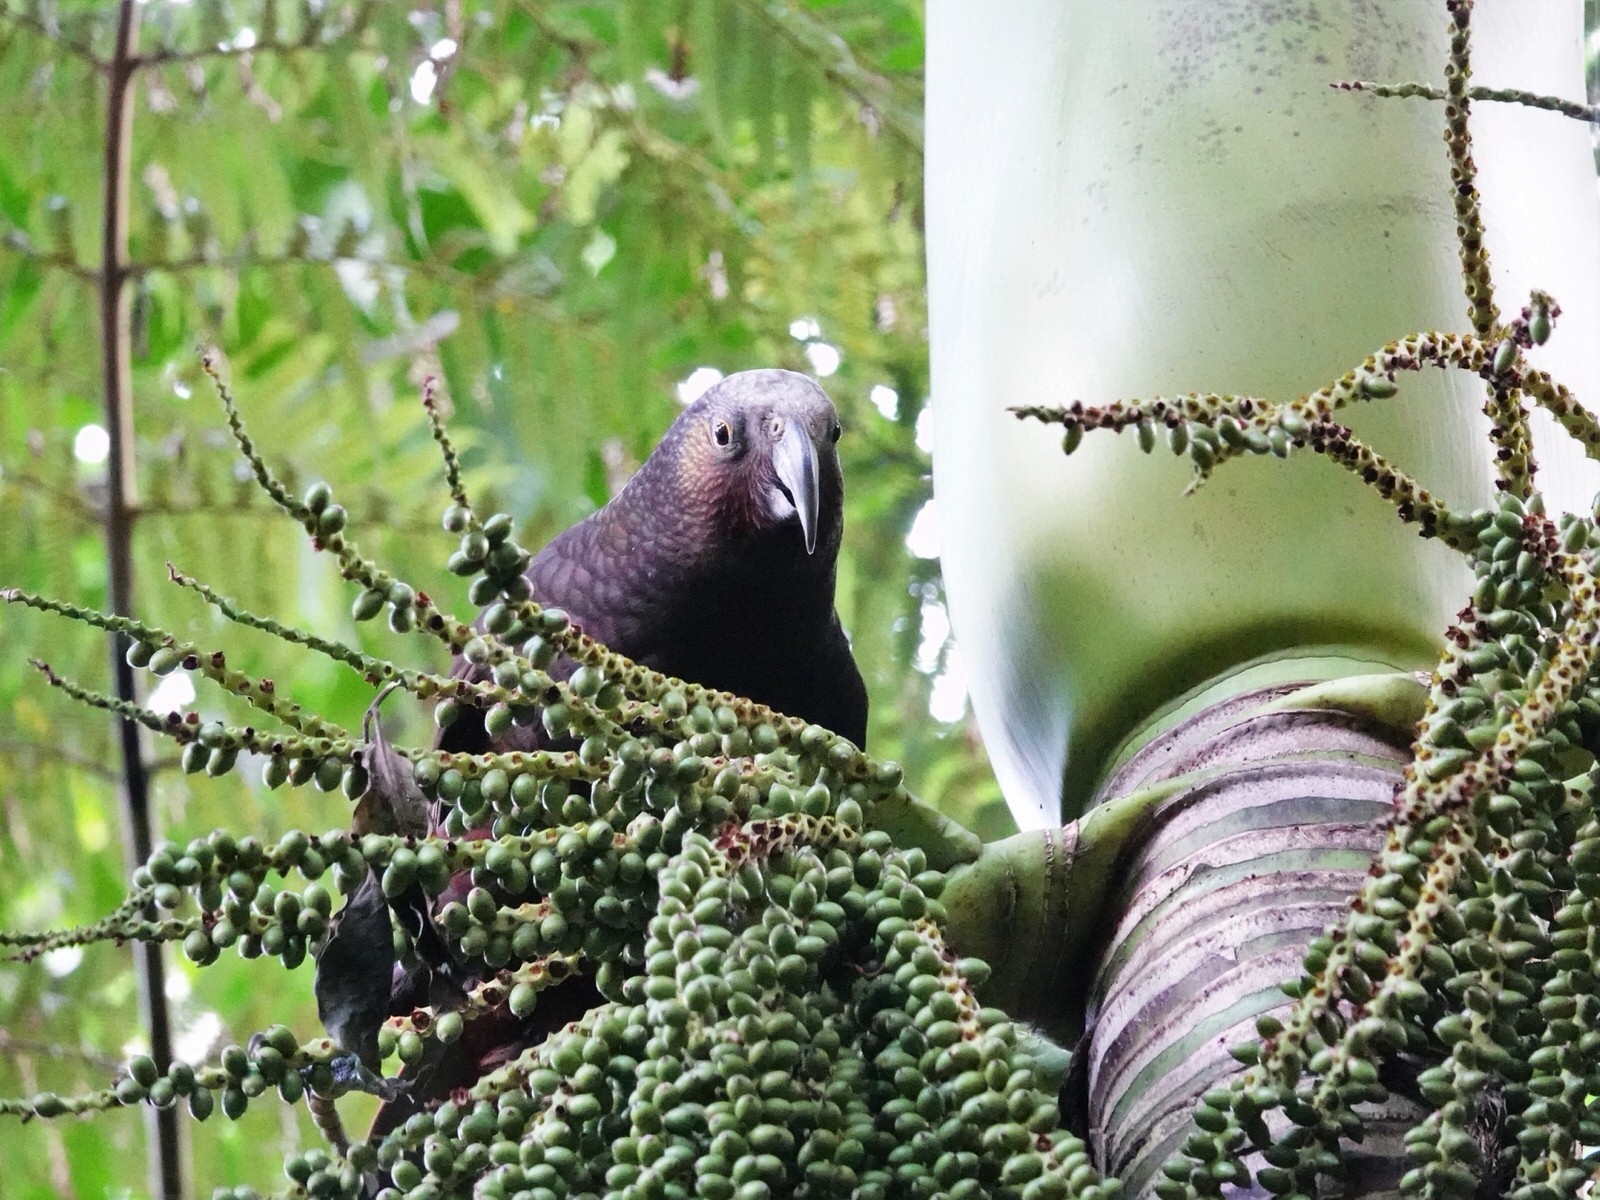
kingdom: Animalia
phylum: Chordata
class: Aves
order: Psittaciformes
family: Psittacidae
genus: Nestor
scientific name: Nestor meridionalis
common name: New zealand kaka
